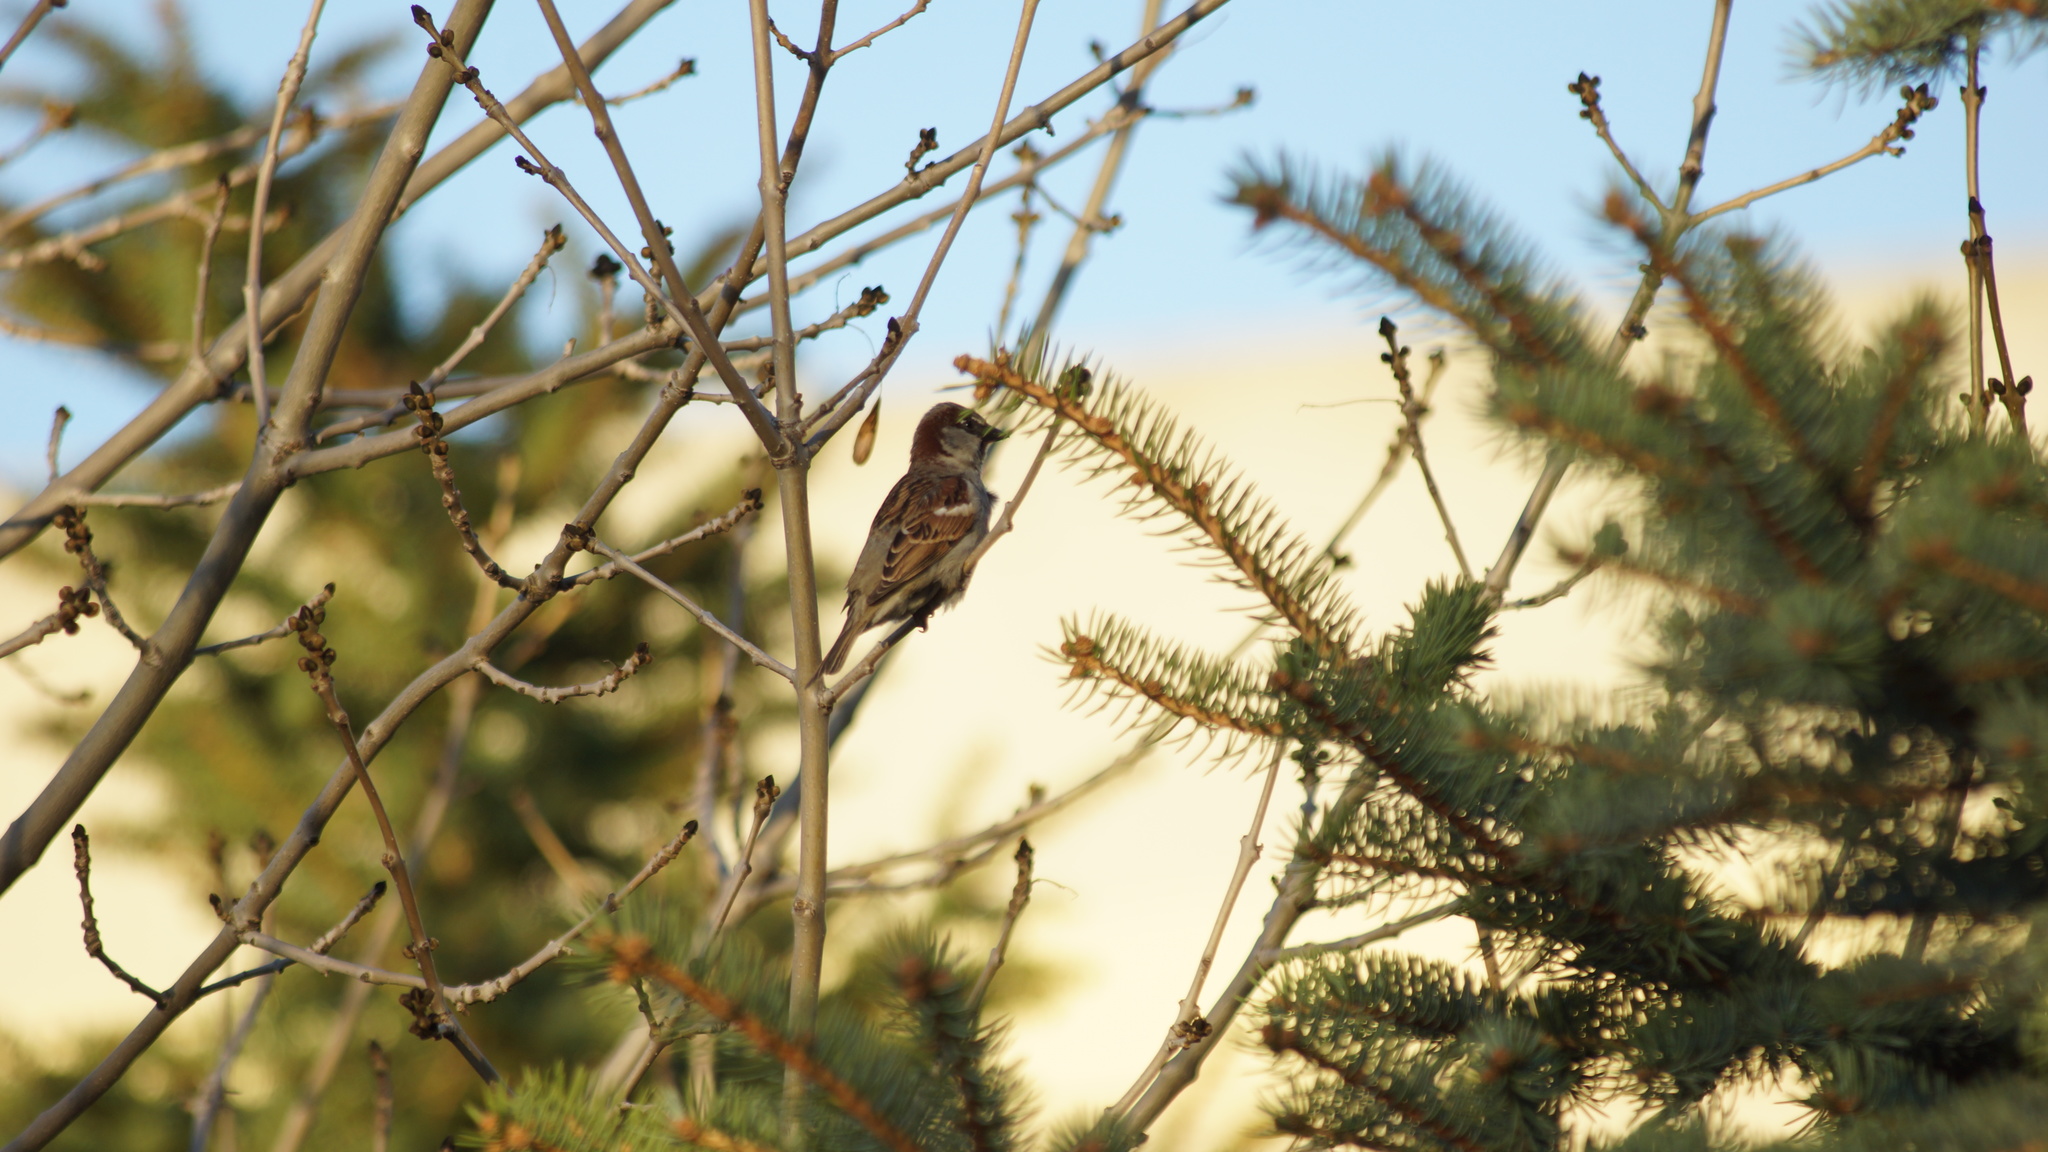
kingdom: Animalia
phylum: Chordata
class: Aves
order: Passeriformes
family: Passeridae
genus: Passer
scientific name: Passer domesticus
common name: House sparrow
